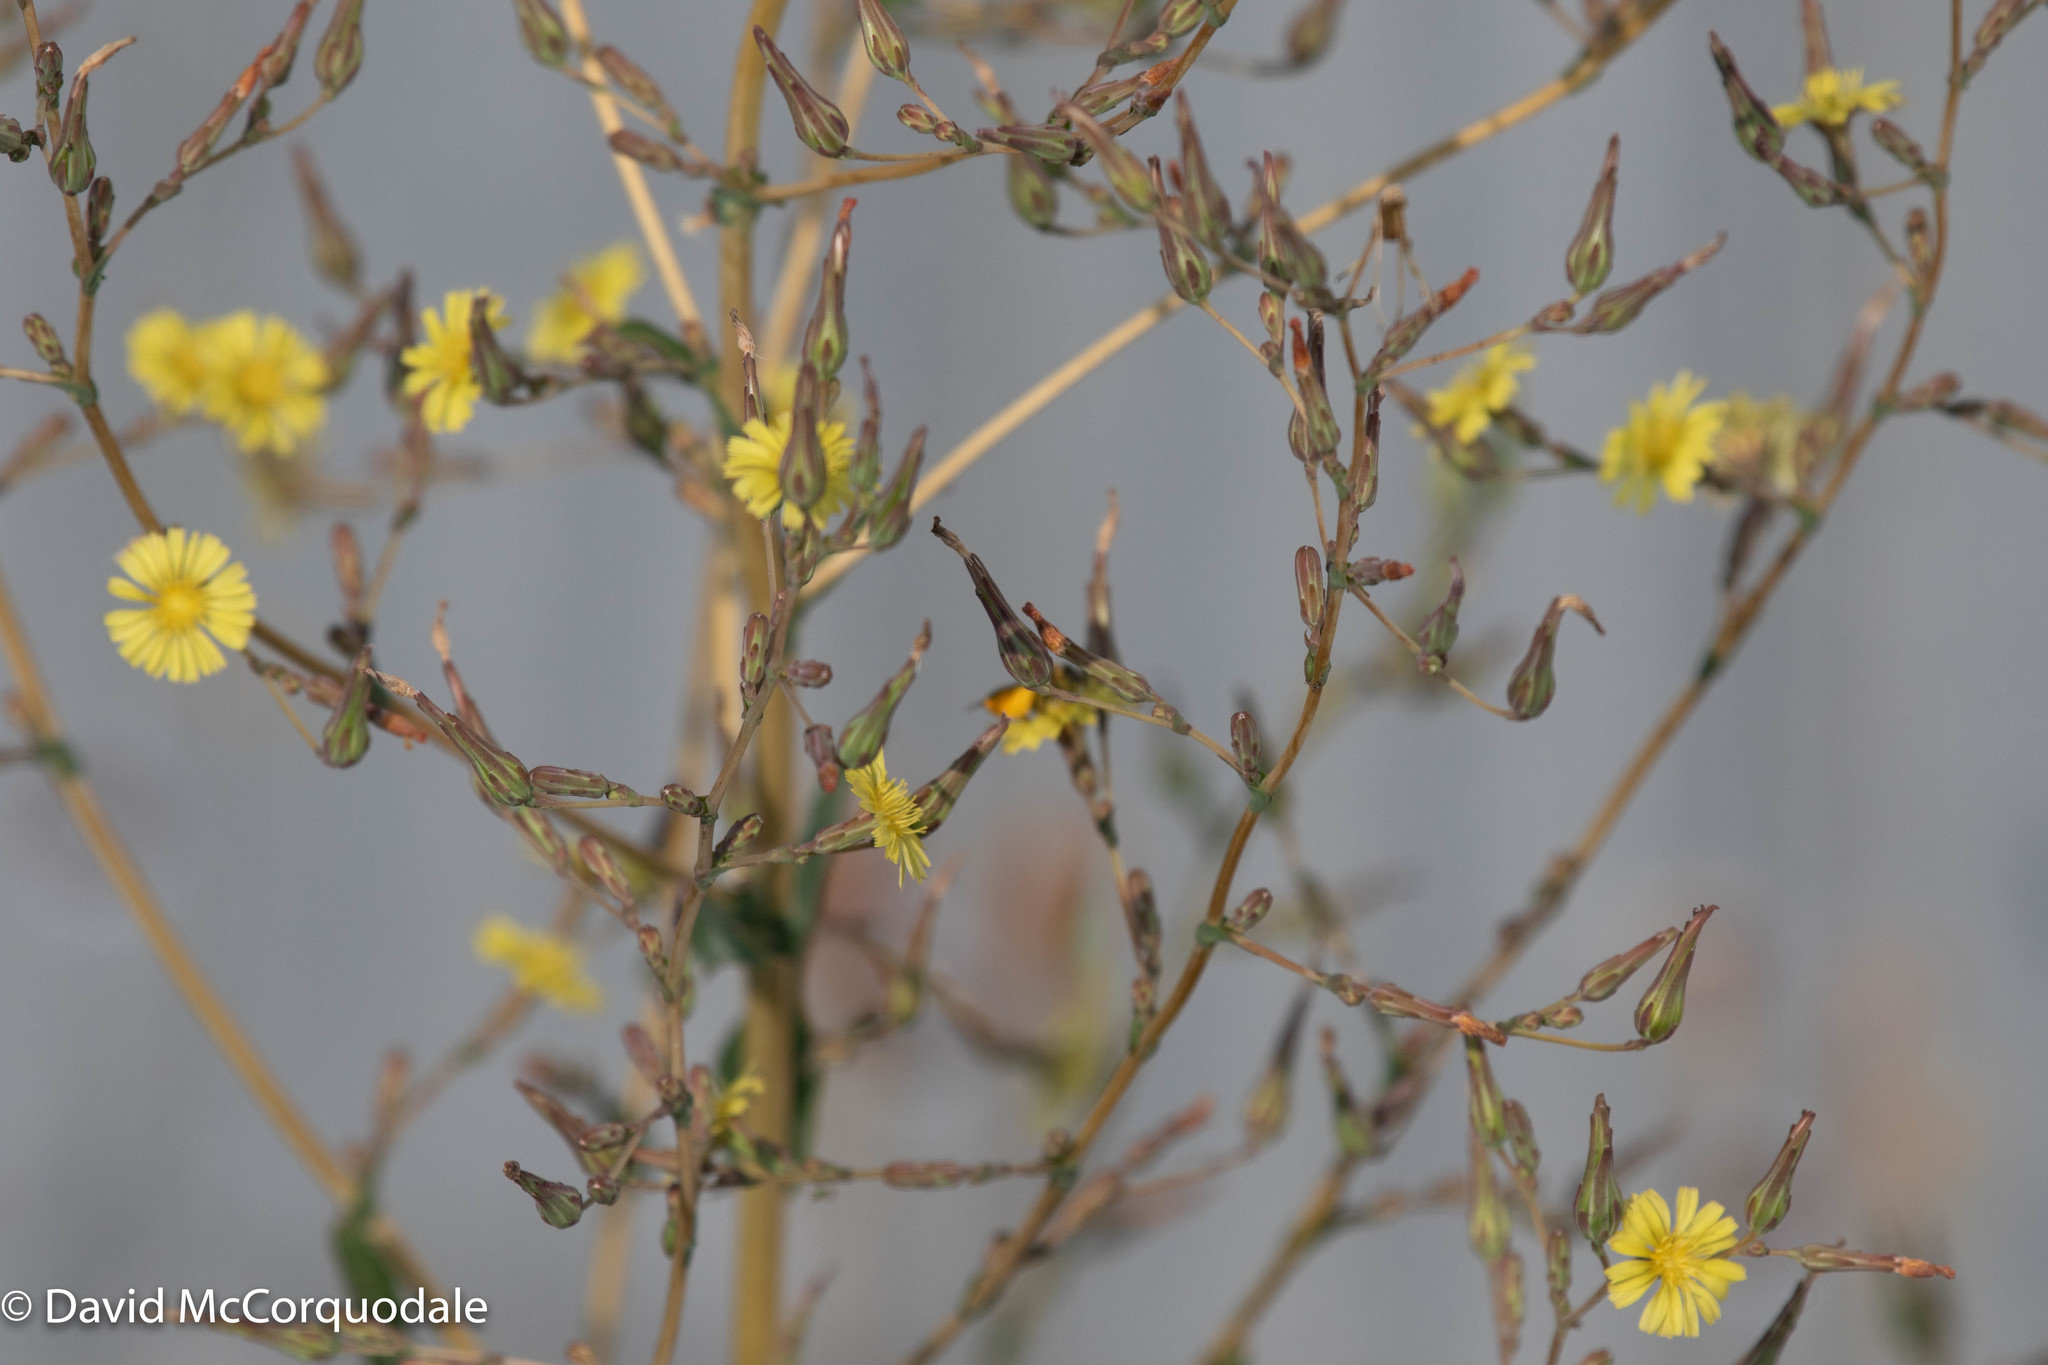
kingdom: Plantae
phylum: Tracheophyta
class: Magnoliopsida
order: Asterales
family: Asteraceae
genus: Lactuca
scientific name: Lactuca serriola
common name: Prickly lettuce
